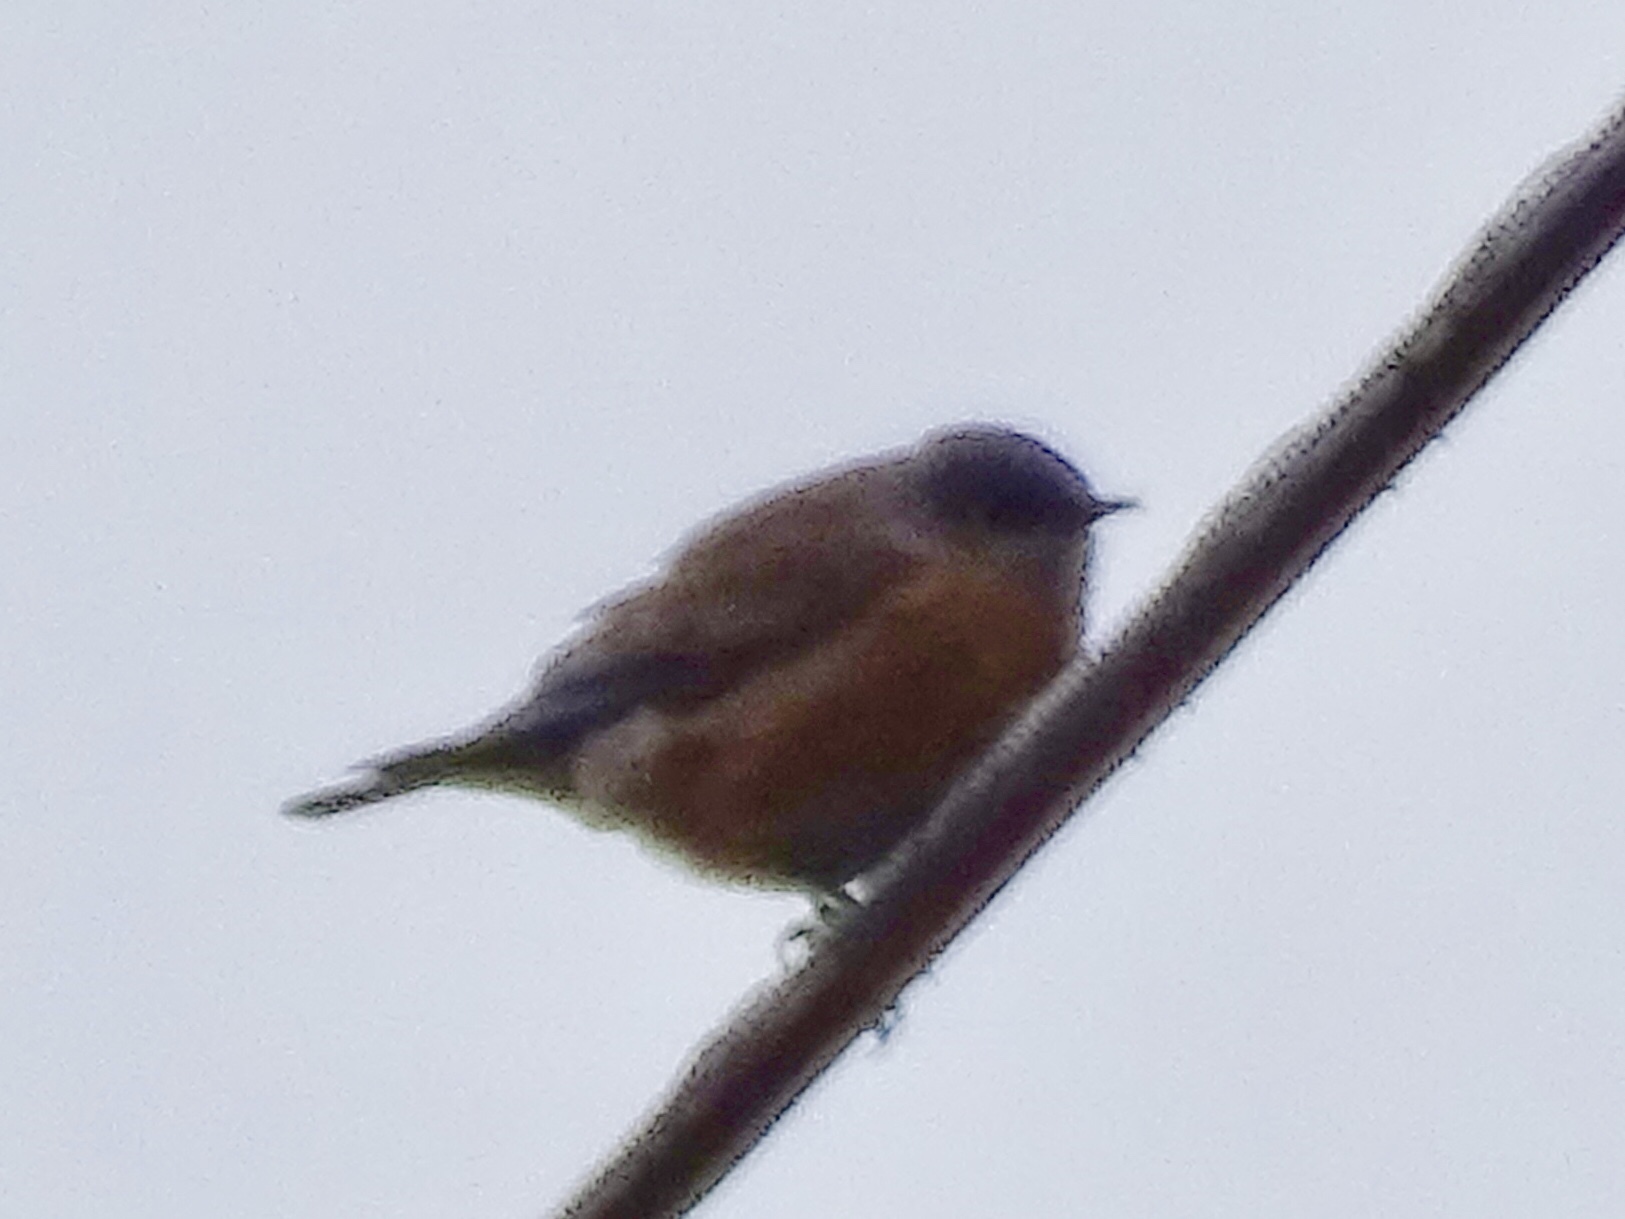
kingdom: Animalia
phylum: Chordata
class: Aves
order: Passeriformes
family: Turdidae
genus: Sialia
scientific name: Sialia mexicana
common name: Western bluebird
